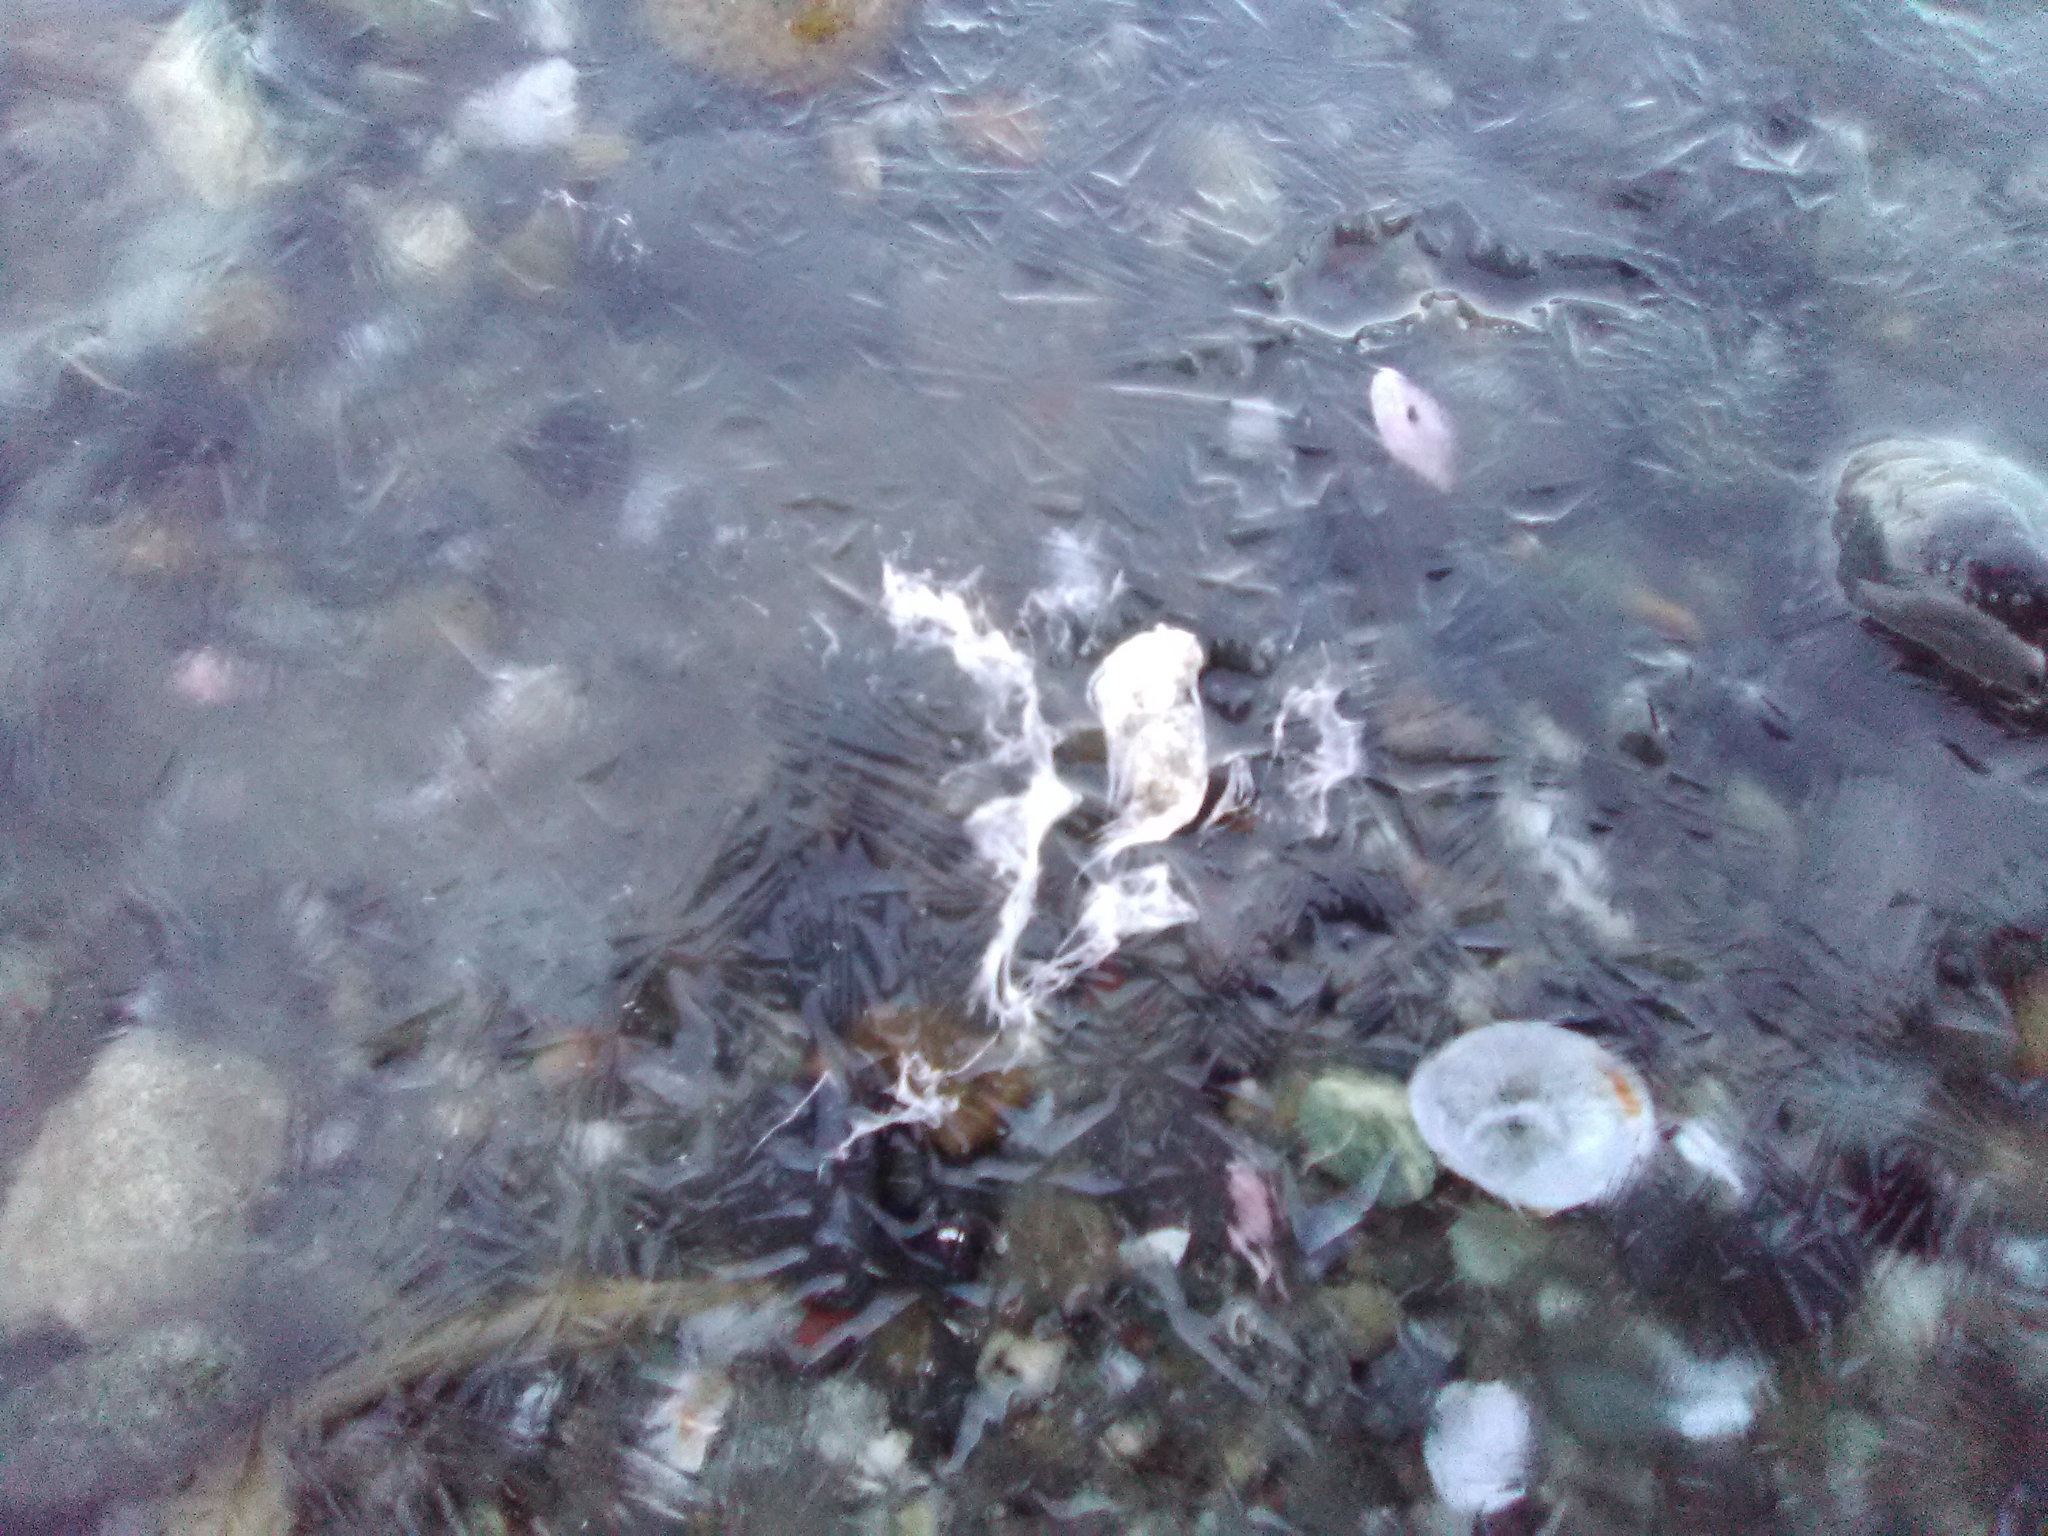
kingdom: Animalia
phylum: Chordata
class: Aves
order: Charadriiformes
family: Scolopacidae
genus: Calidris
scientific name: Calidris ptilocnemis
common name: Rock sandpiper
